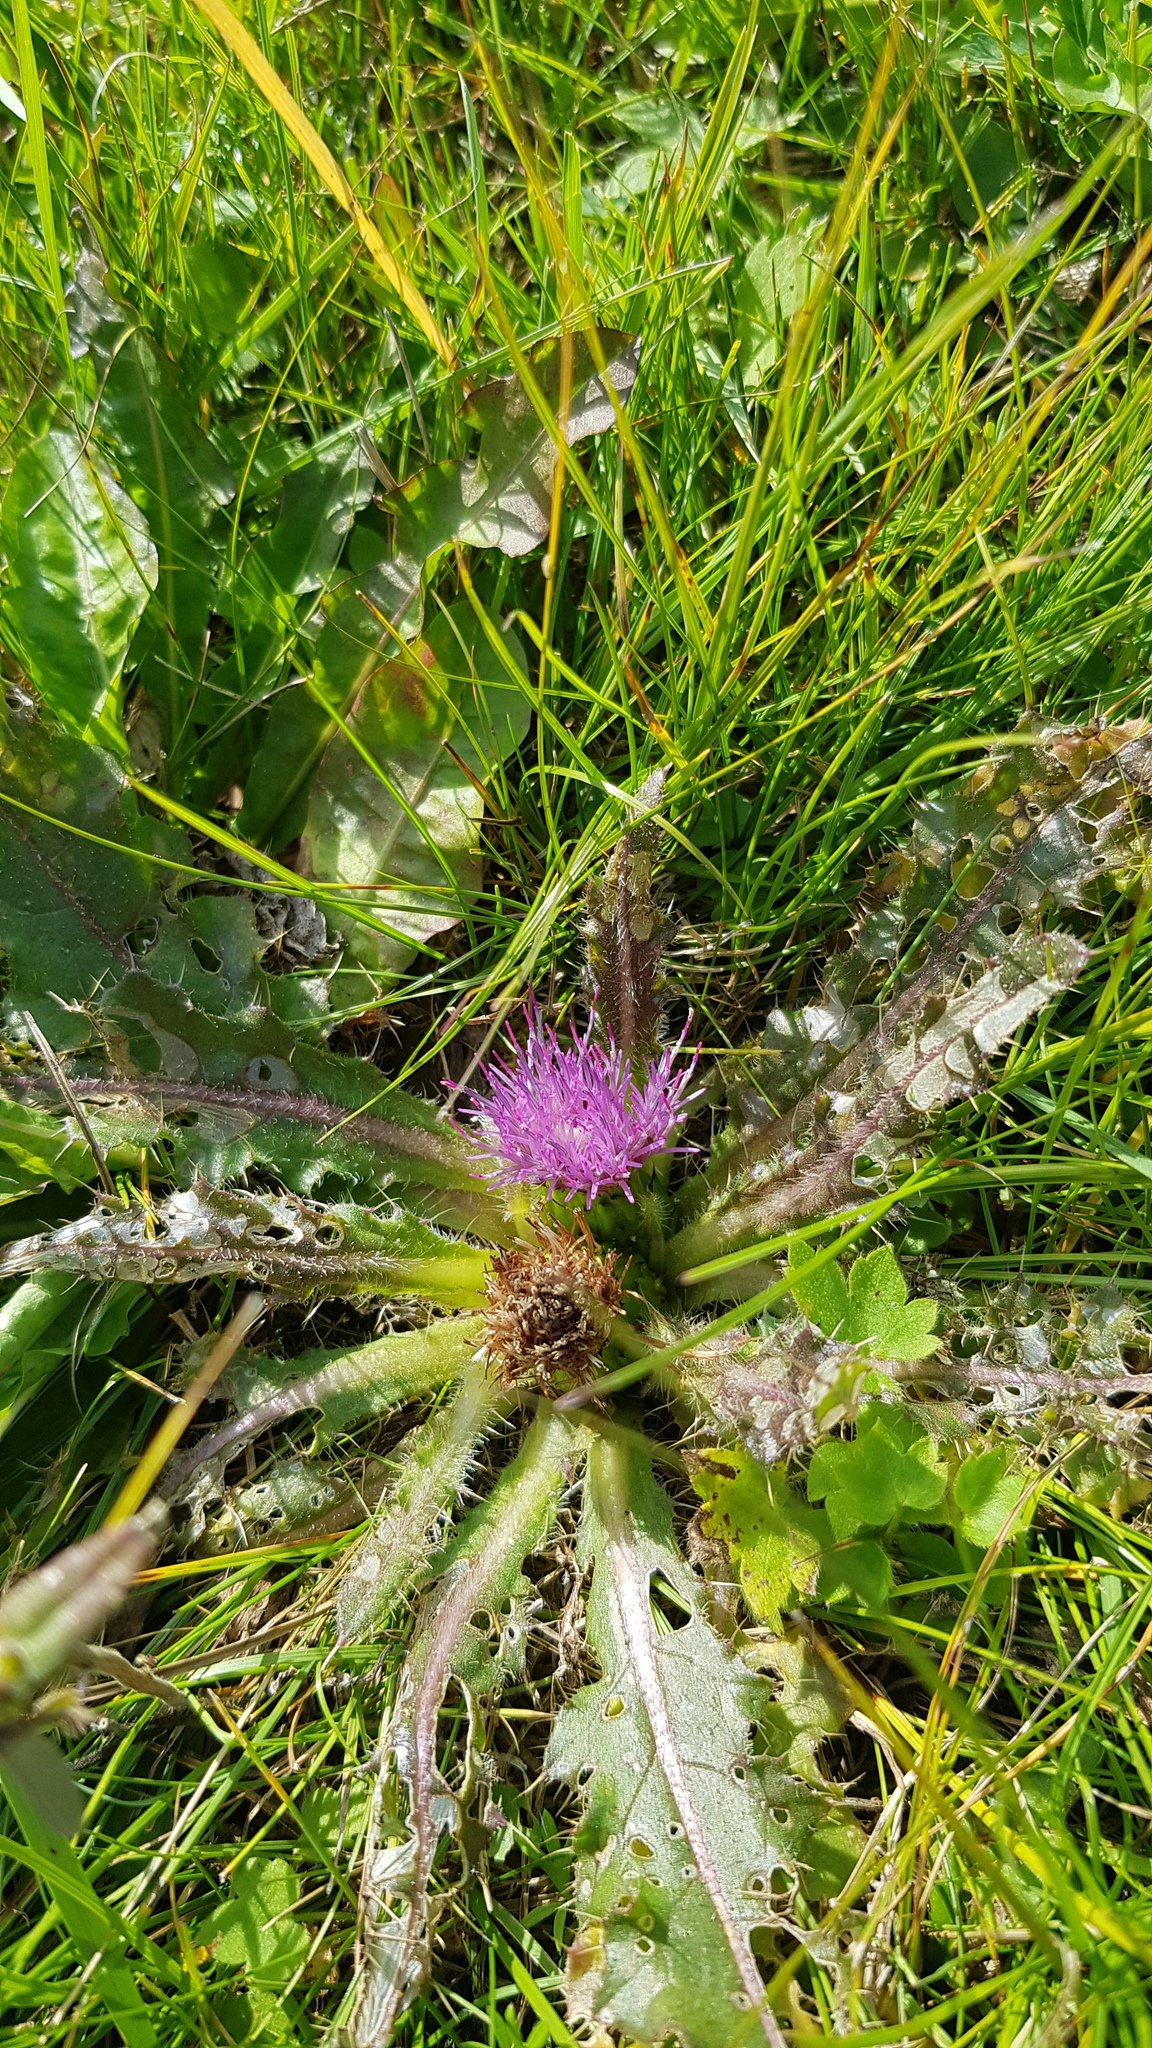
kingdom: Plantae
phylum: Tracheophyta
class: Magnoliopsida
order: Asterales
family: Asteraceae
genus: Cirsium
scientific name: Cirsium esculentum
